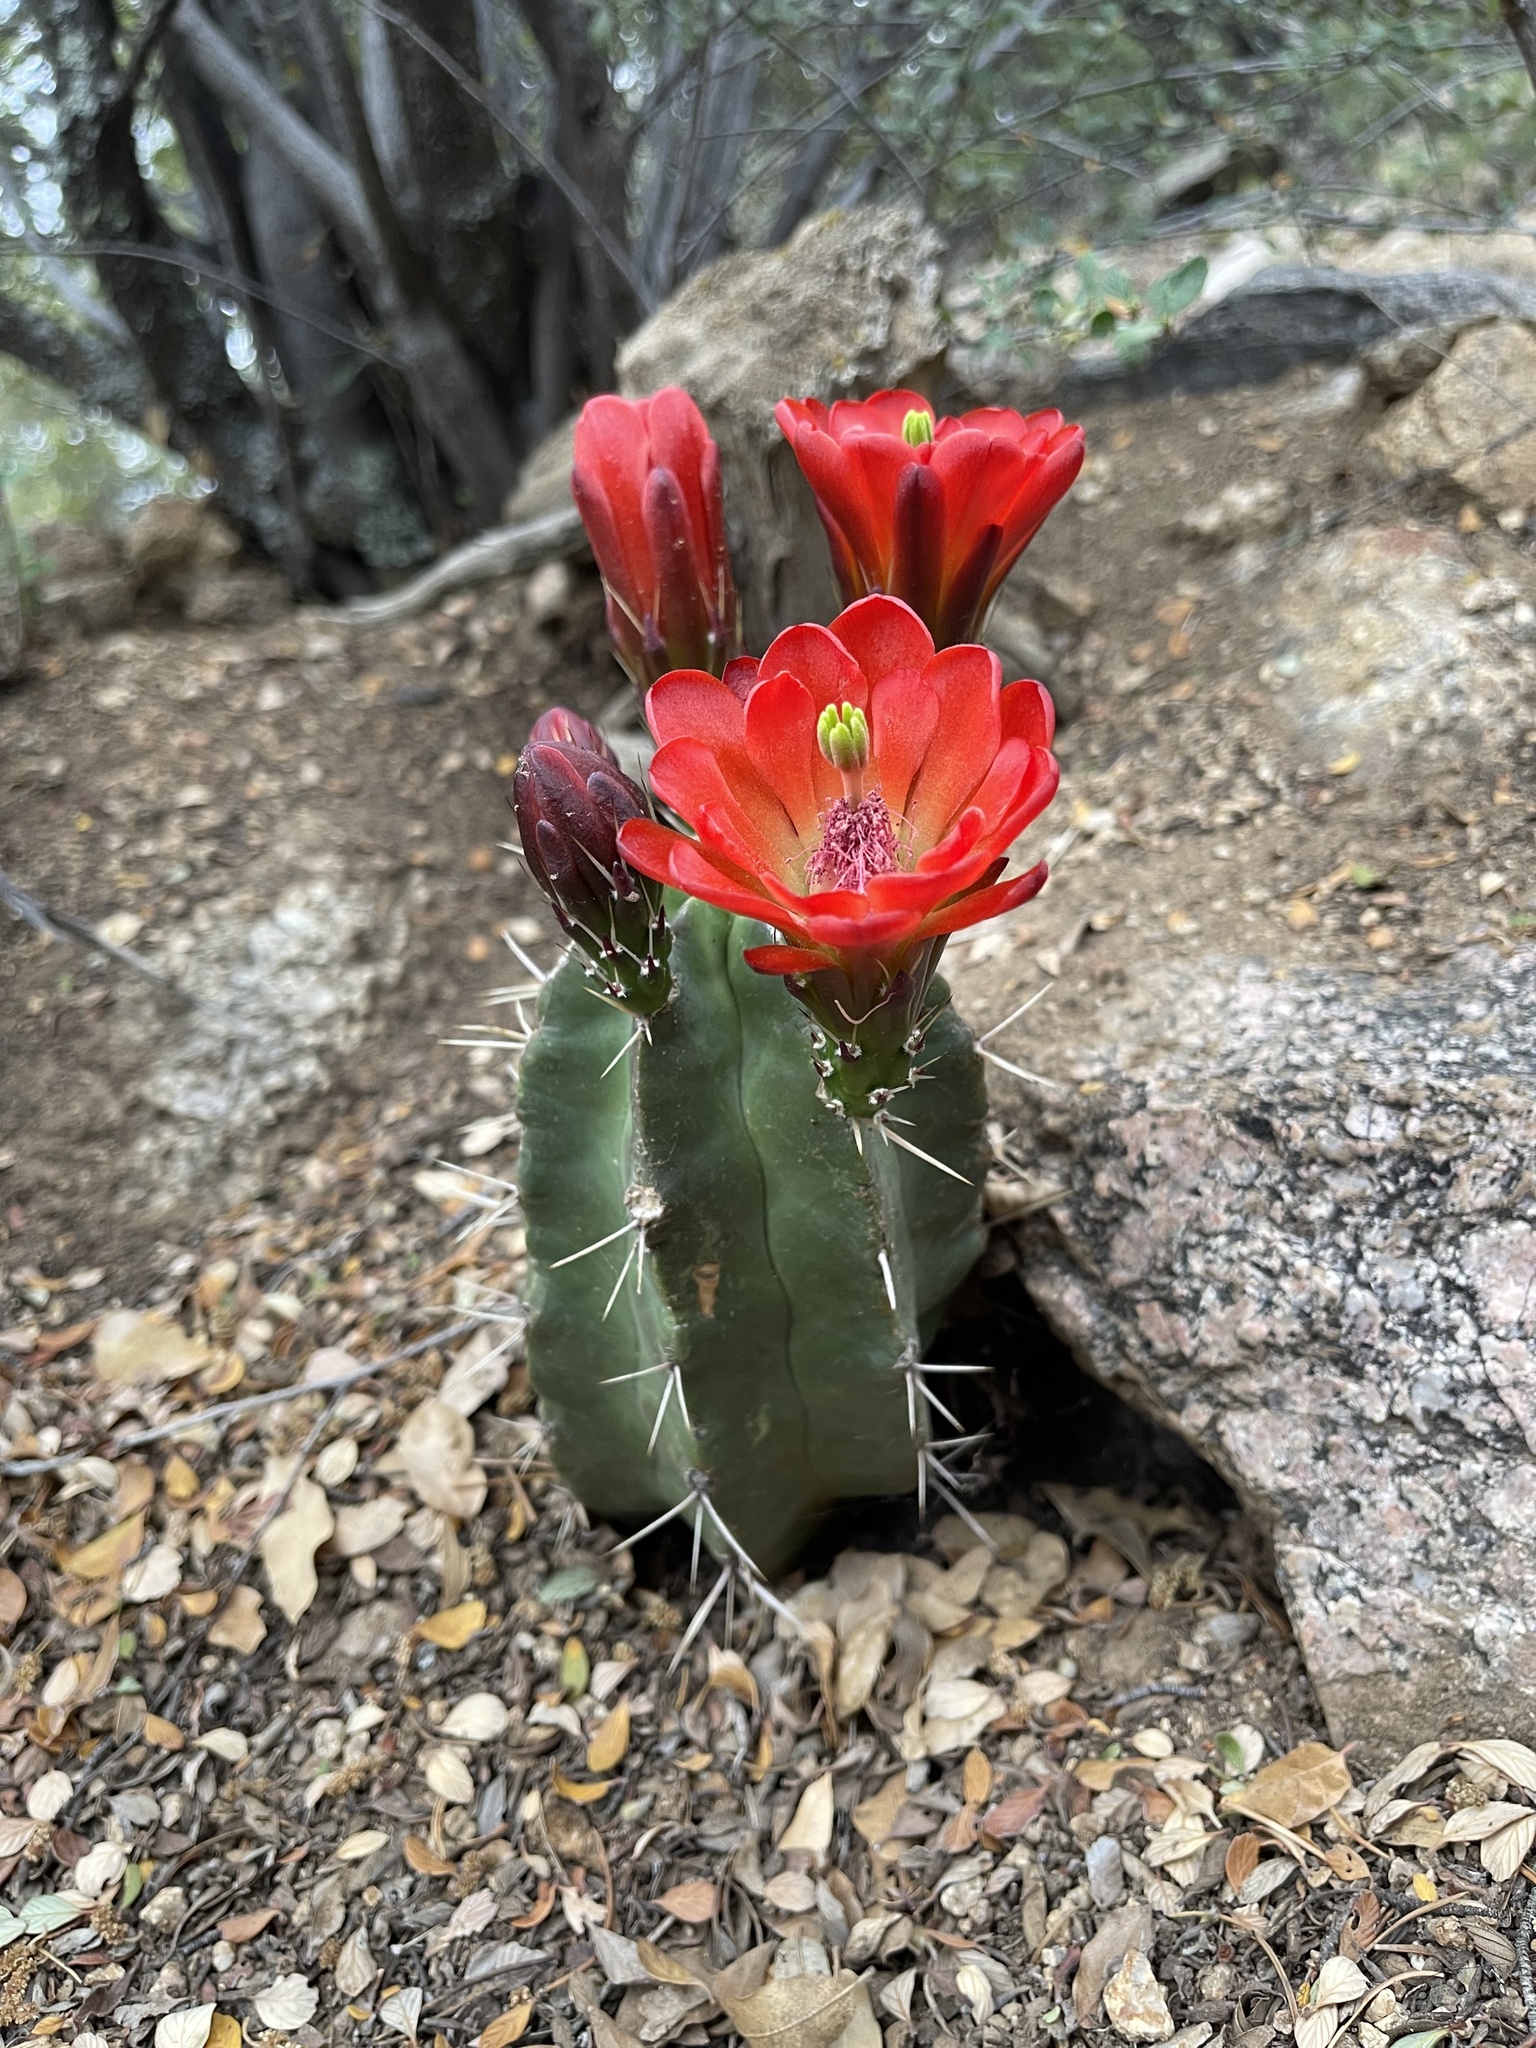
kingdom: Plantae
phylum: Tracheophyta
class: Magnoliopsida
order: Caryophyllales
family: Cactaceae
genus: Echinocereus
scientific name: Echinocereus triglochidiatus
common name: Claretcup hedgehog
